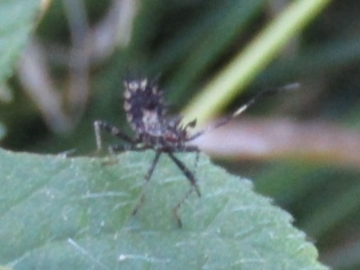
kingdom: Animalia
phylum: Arthropoda
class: Insecta
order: Hemiptera
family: Coreidae
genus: Euthochtha
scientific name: Euthochtha galeator
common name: Helmeted squash bug
